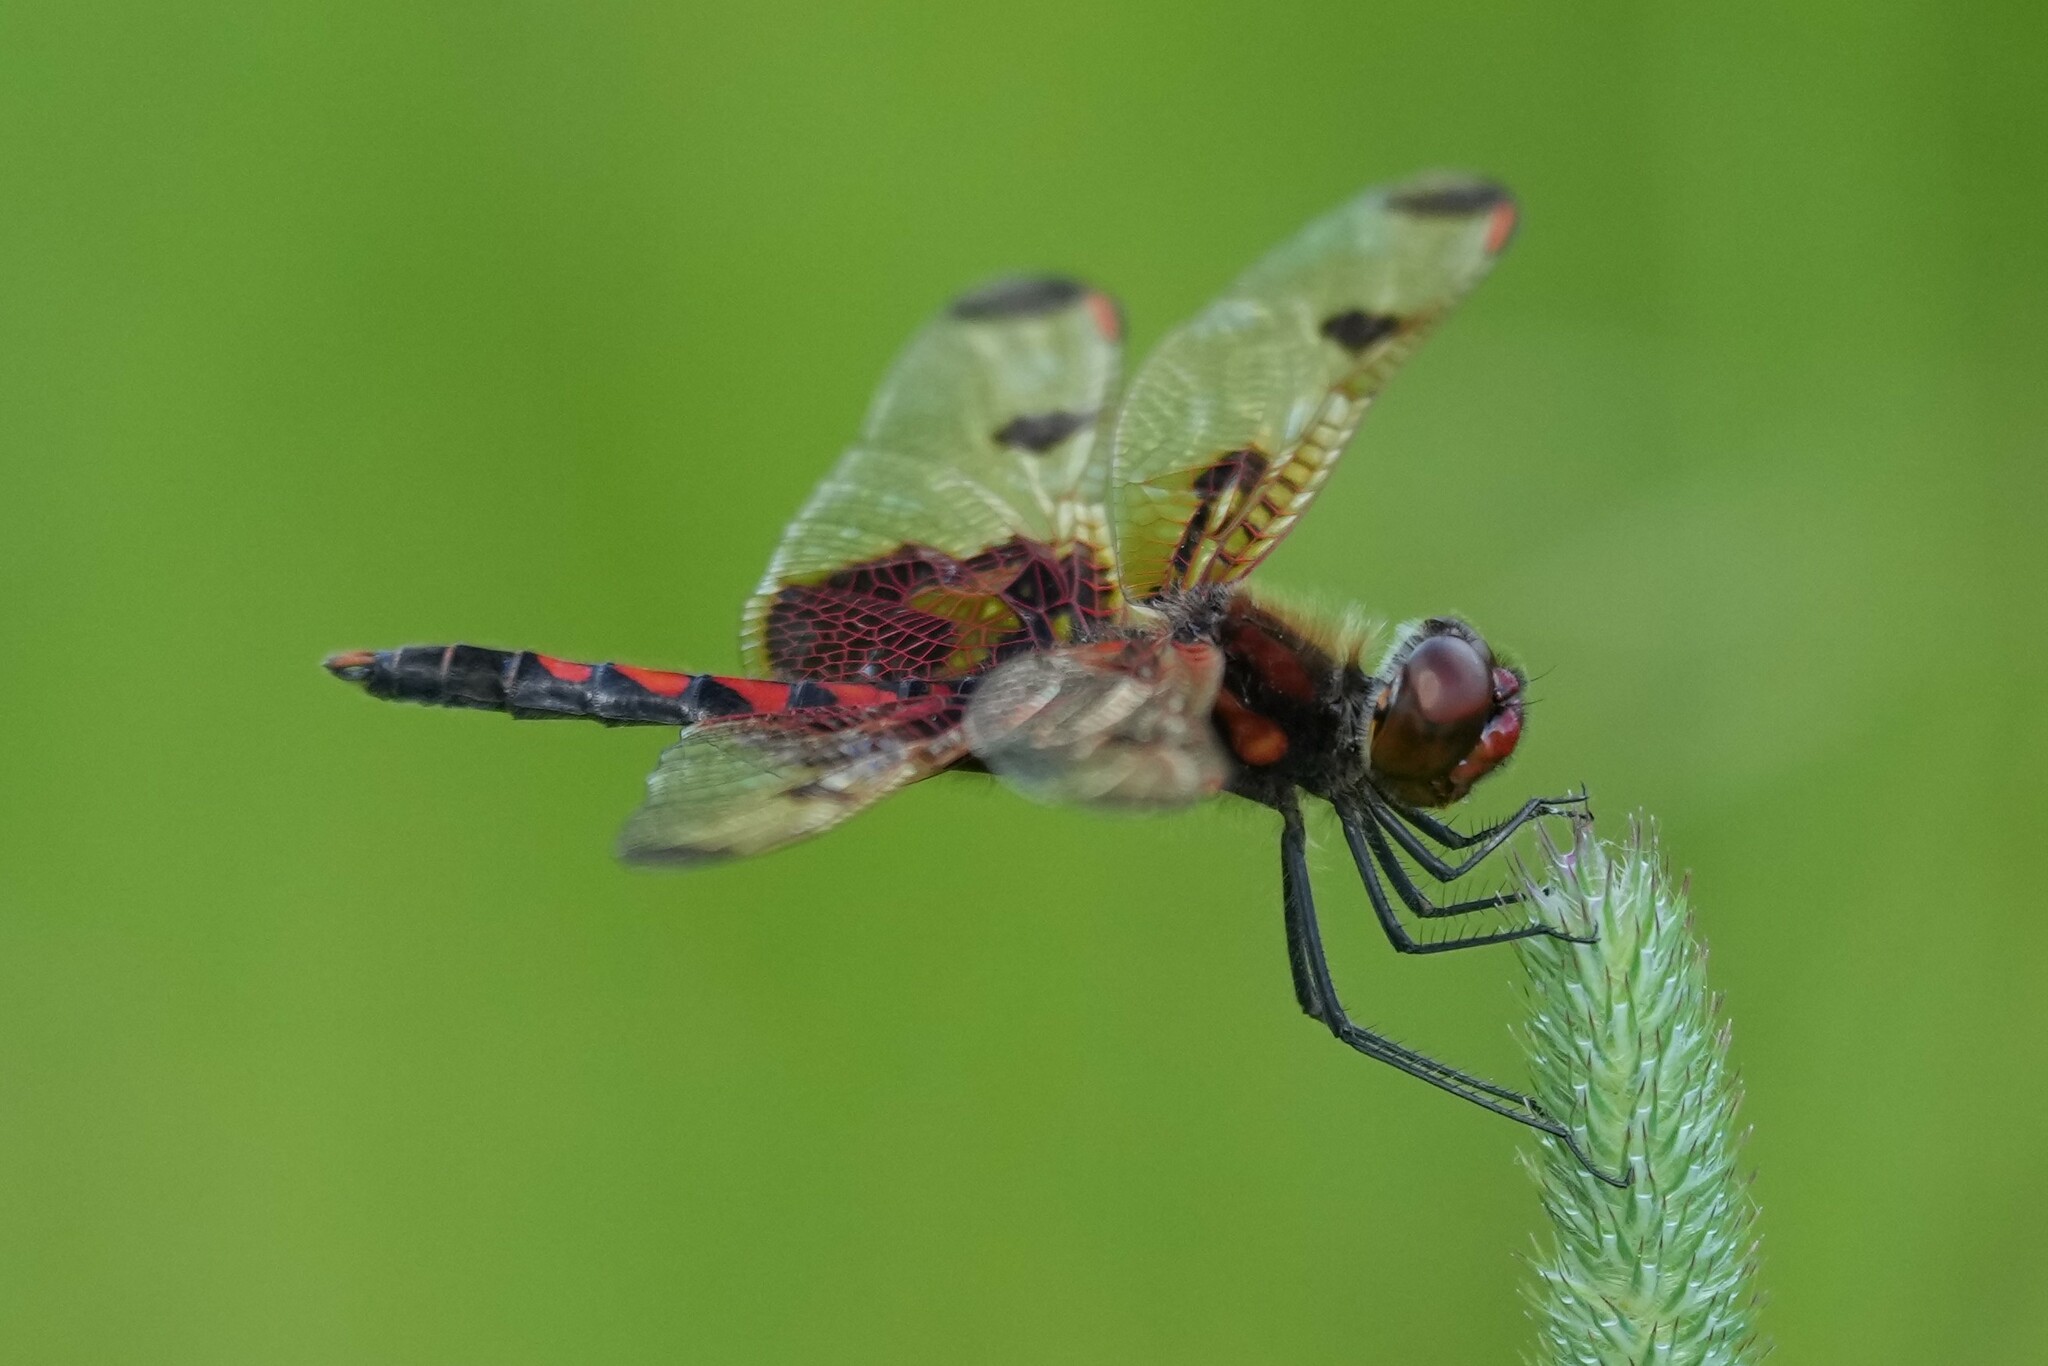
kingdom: Animalia
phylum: Arthropoda
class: Insecta
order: Odonata
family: Libellulidae
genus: Celithemis
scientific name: Celithemis elisa
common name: Calico pennant
